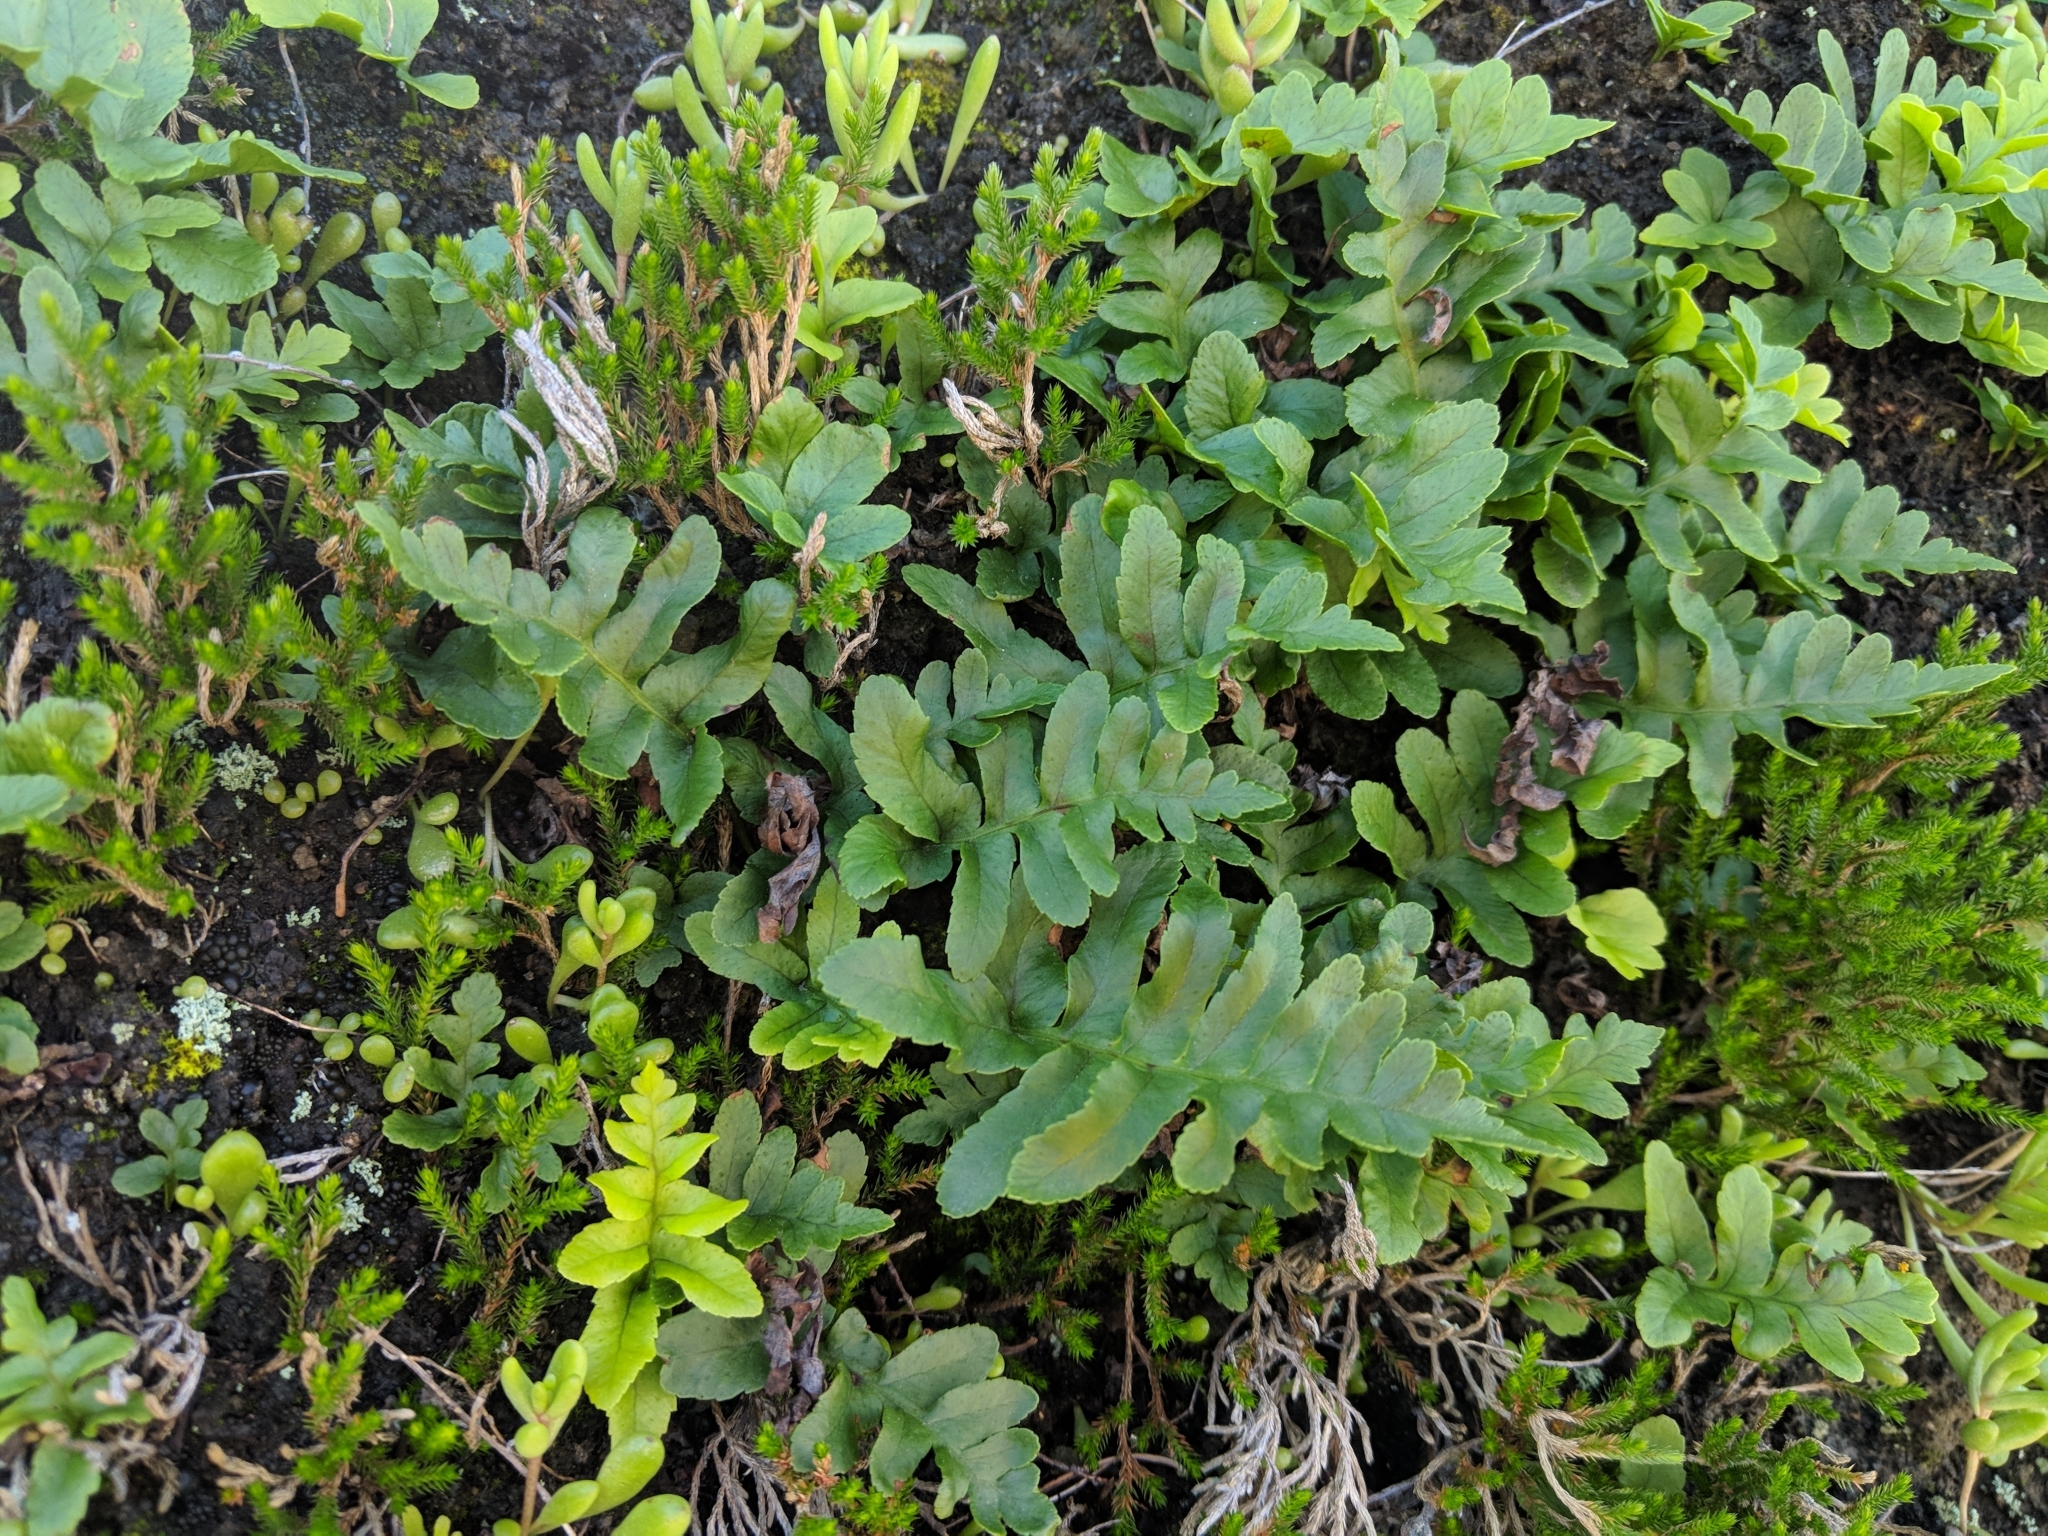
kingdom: Plantae
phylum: Tracheophyta
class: Polypodiopsida
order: Polypodiales
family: Polypodiaceae
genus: Polypodium
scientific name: Polypodium californicum
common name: California polypody
